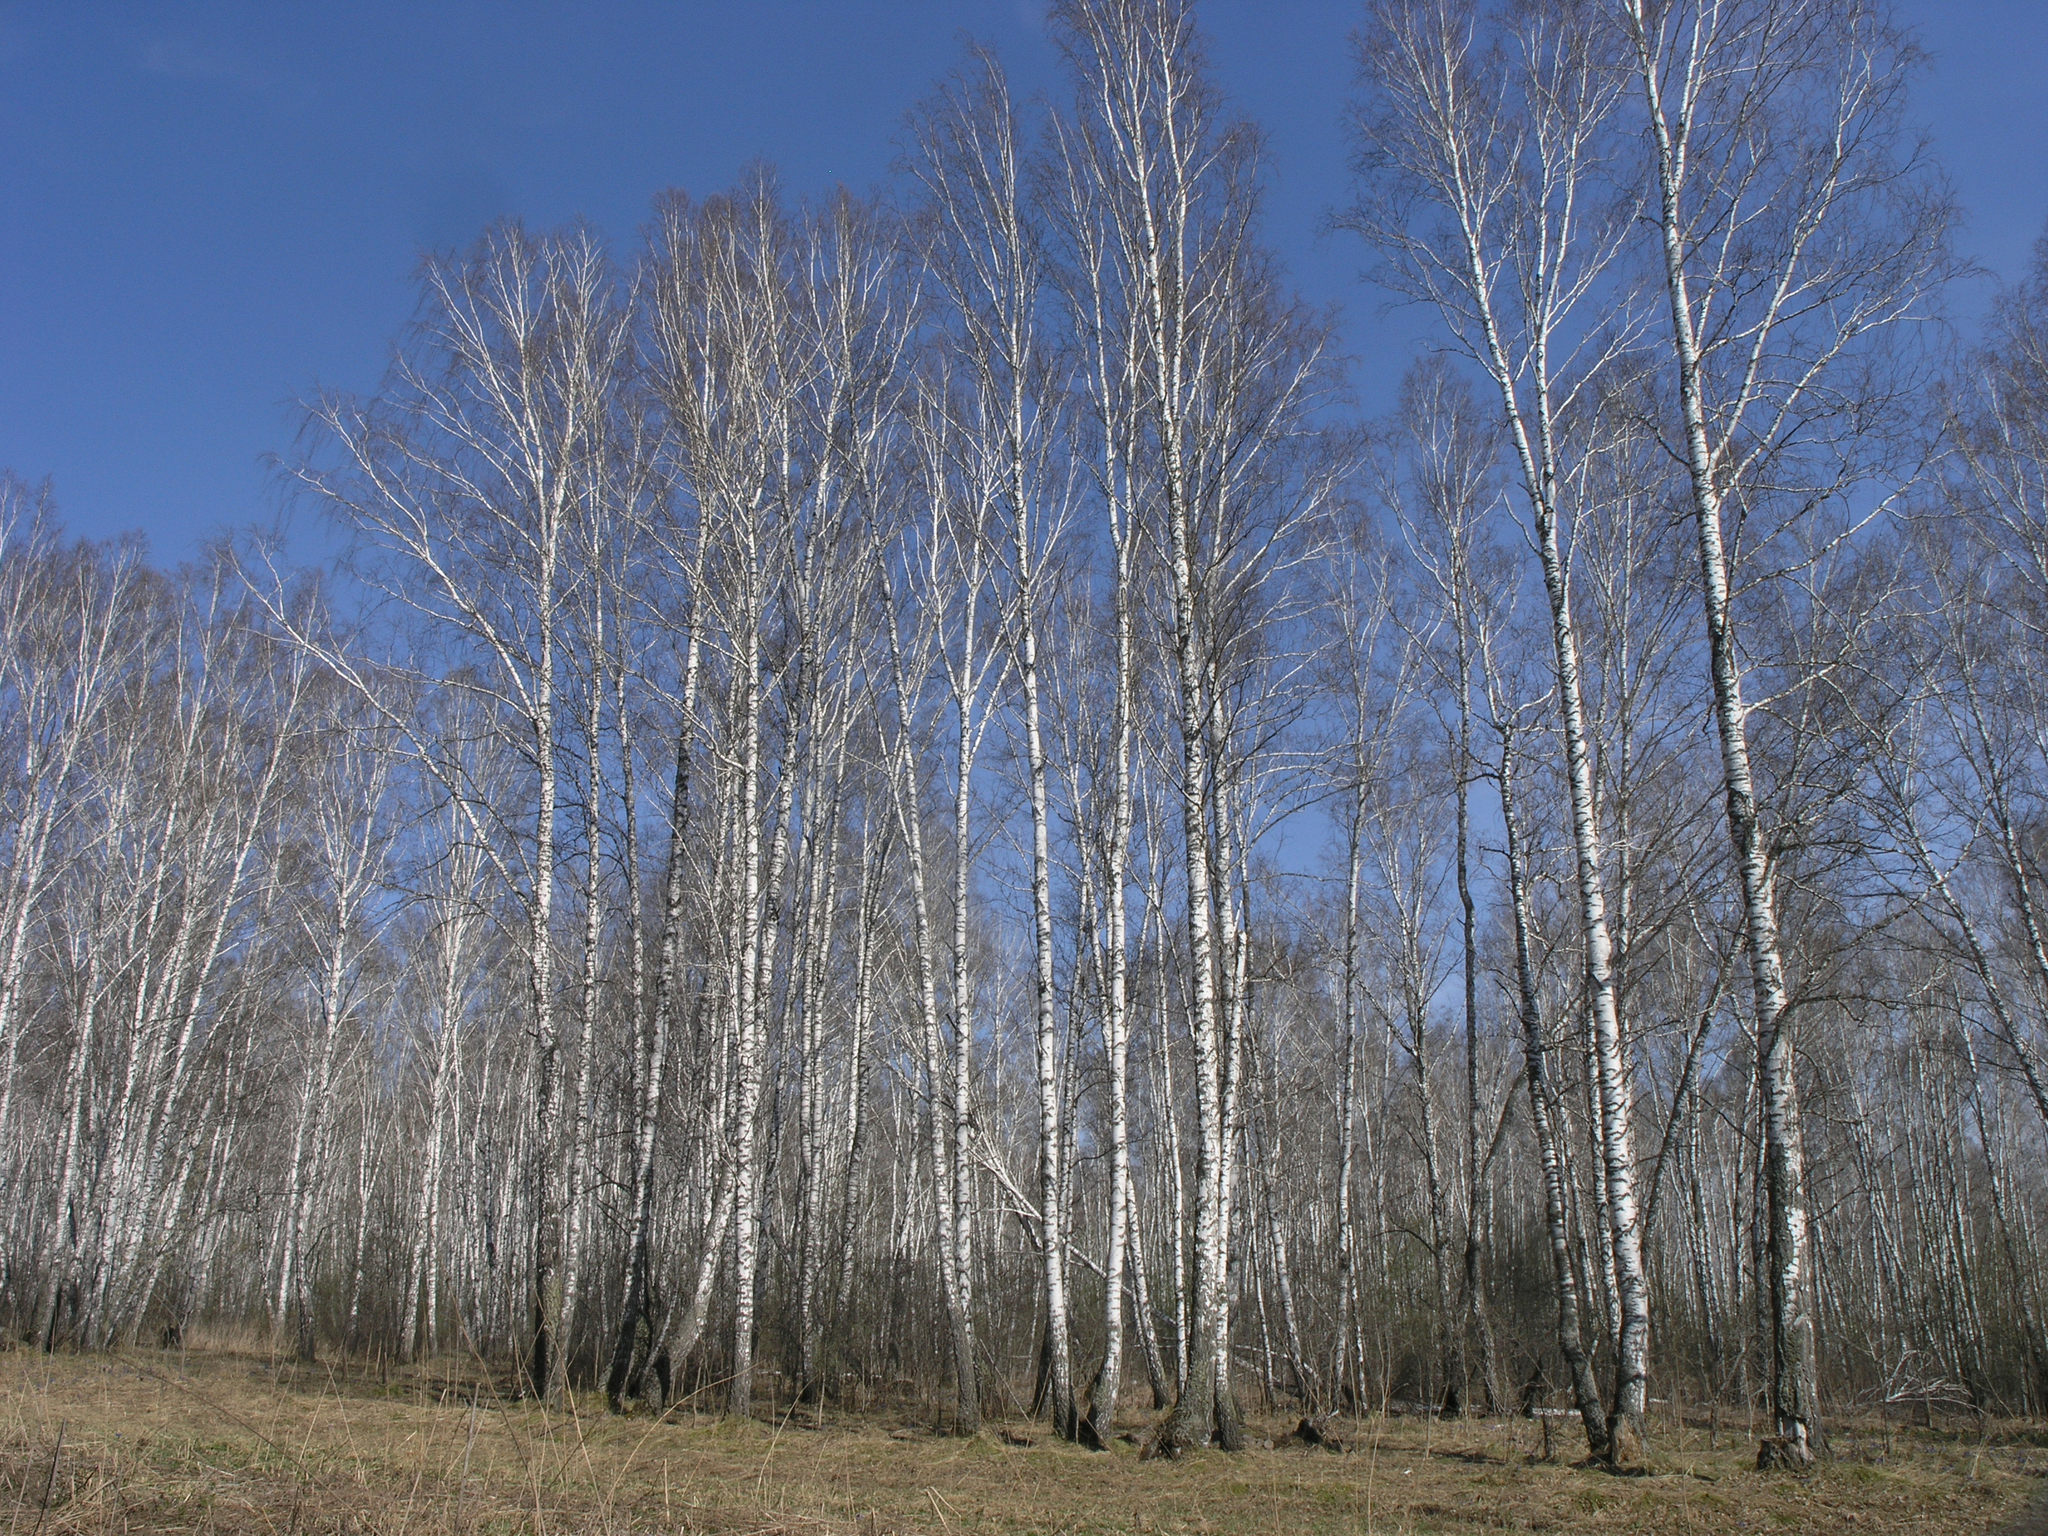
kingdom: Plantae
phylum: Tracheophyta
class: Magnoliopsida
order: Fagales
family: Betulaceae
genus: Betula
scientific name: Betula pendula
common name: Silver birch
